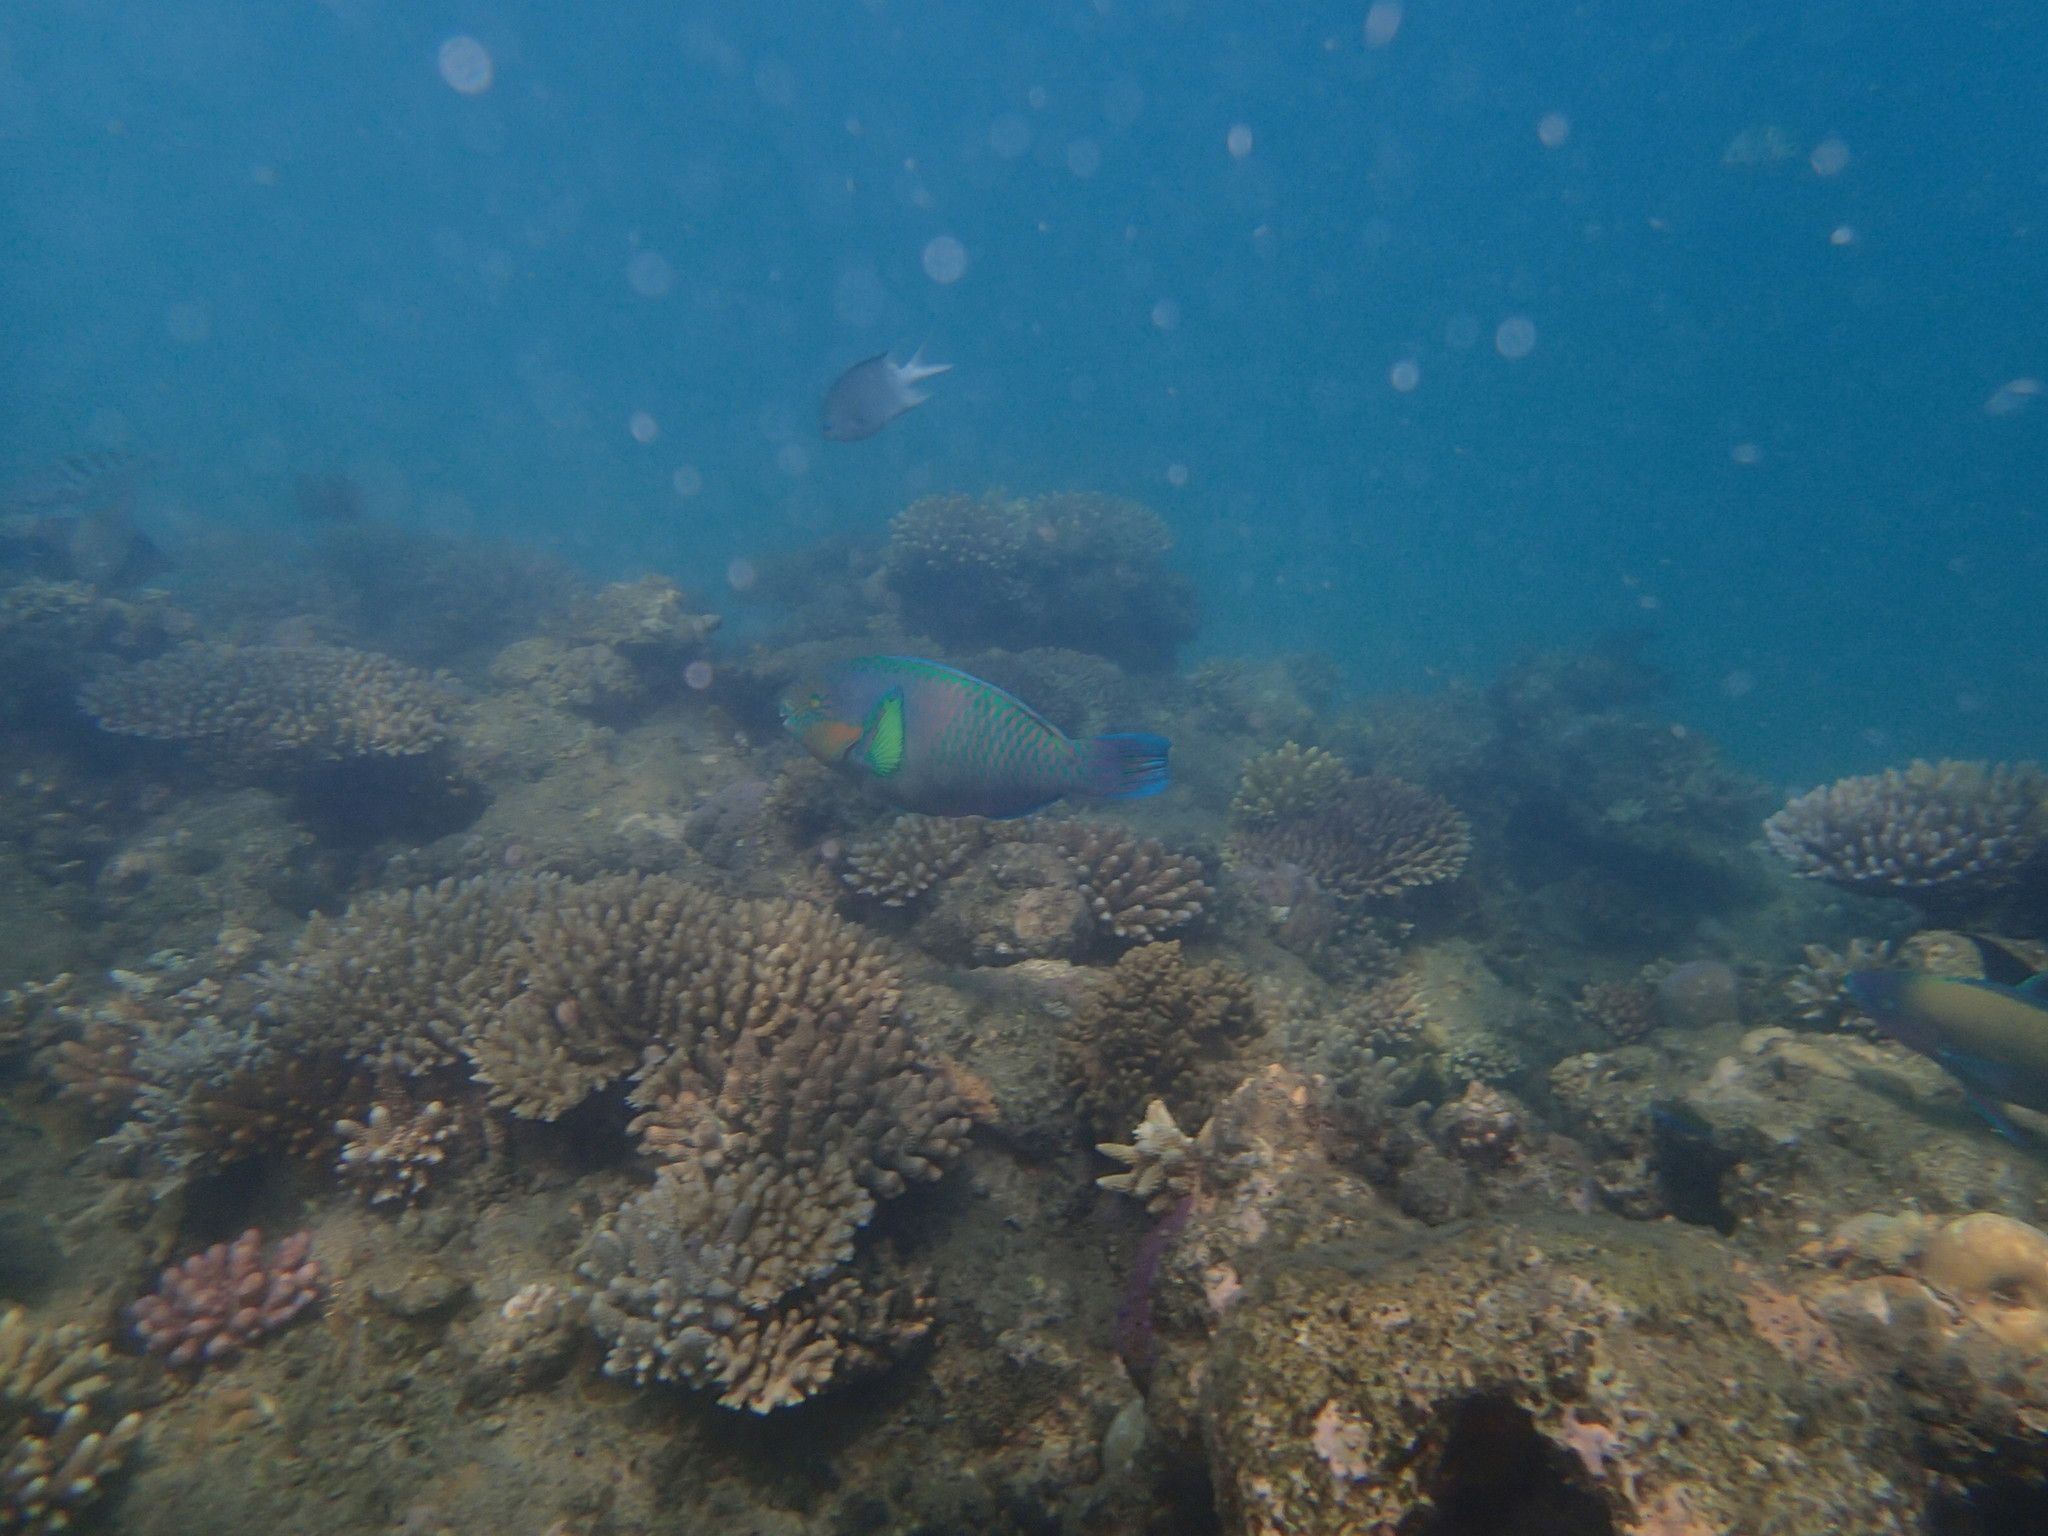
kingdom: Animalia
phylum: Chordata
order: Perciformes
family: Scaridae
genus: Scarus
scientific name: Scarus rivulatus
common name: Surf parrotfish
